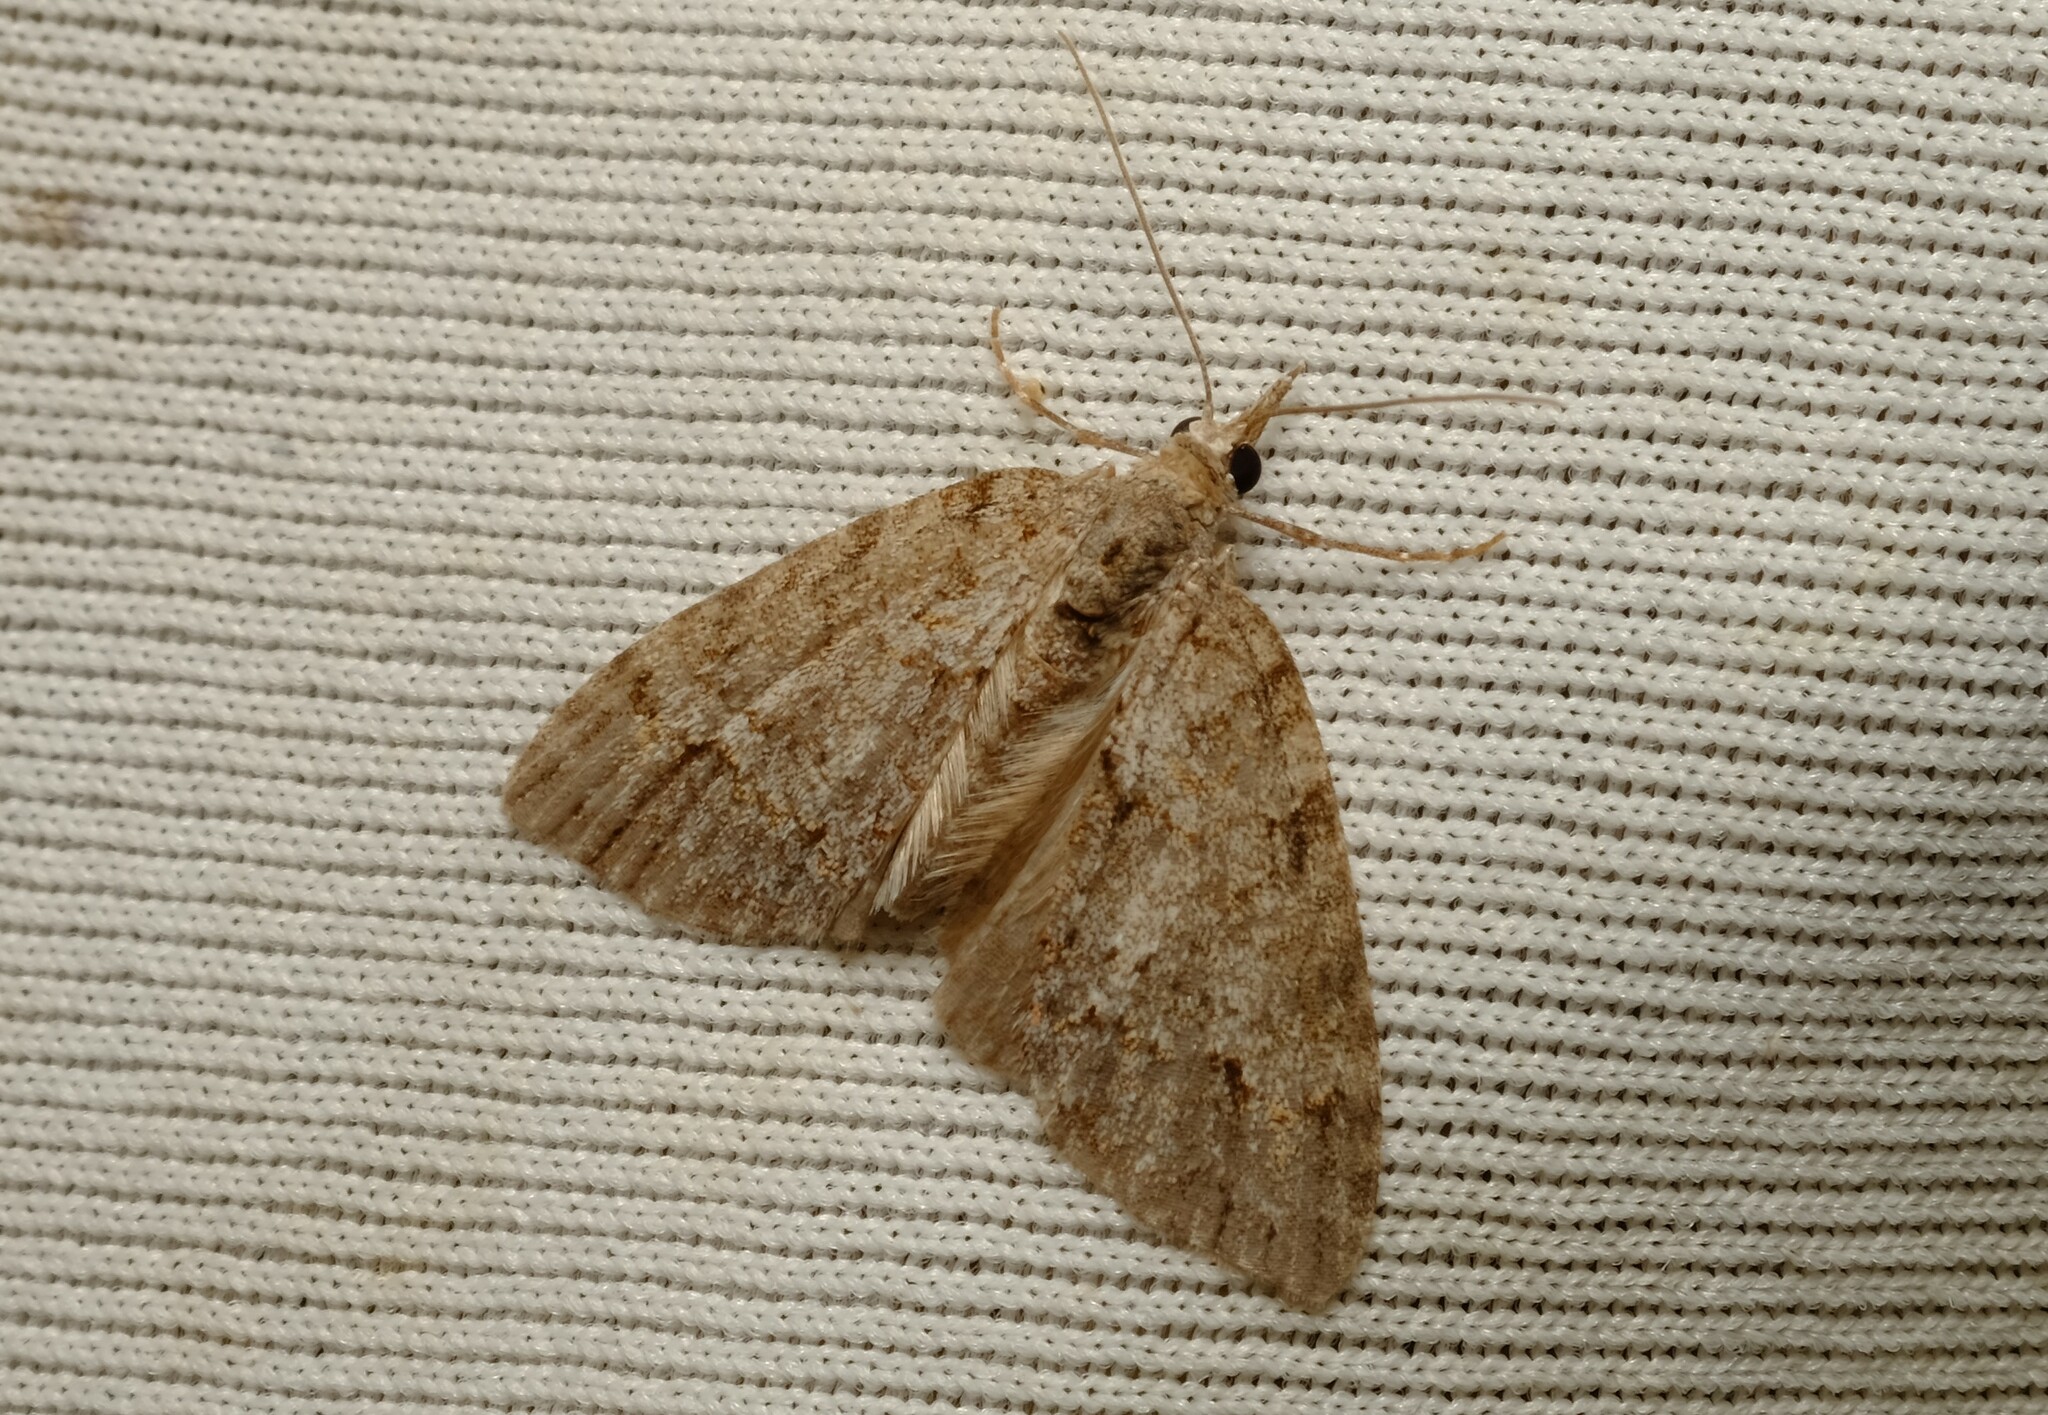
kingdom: Animalia
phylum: Arthropoda
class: Insecta
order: Lepidoptera
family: Geometridae
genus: Microdes
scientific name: Microdes villosata
